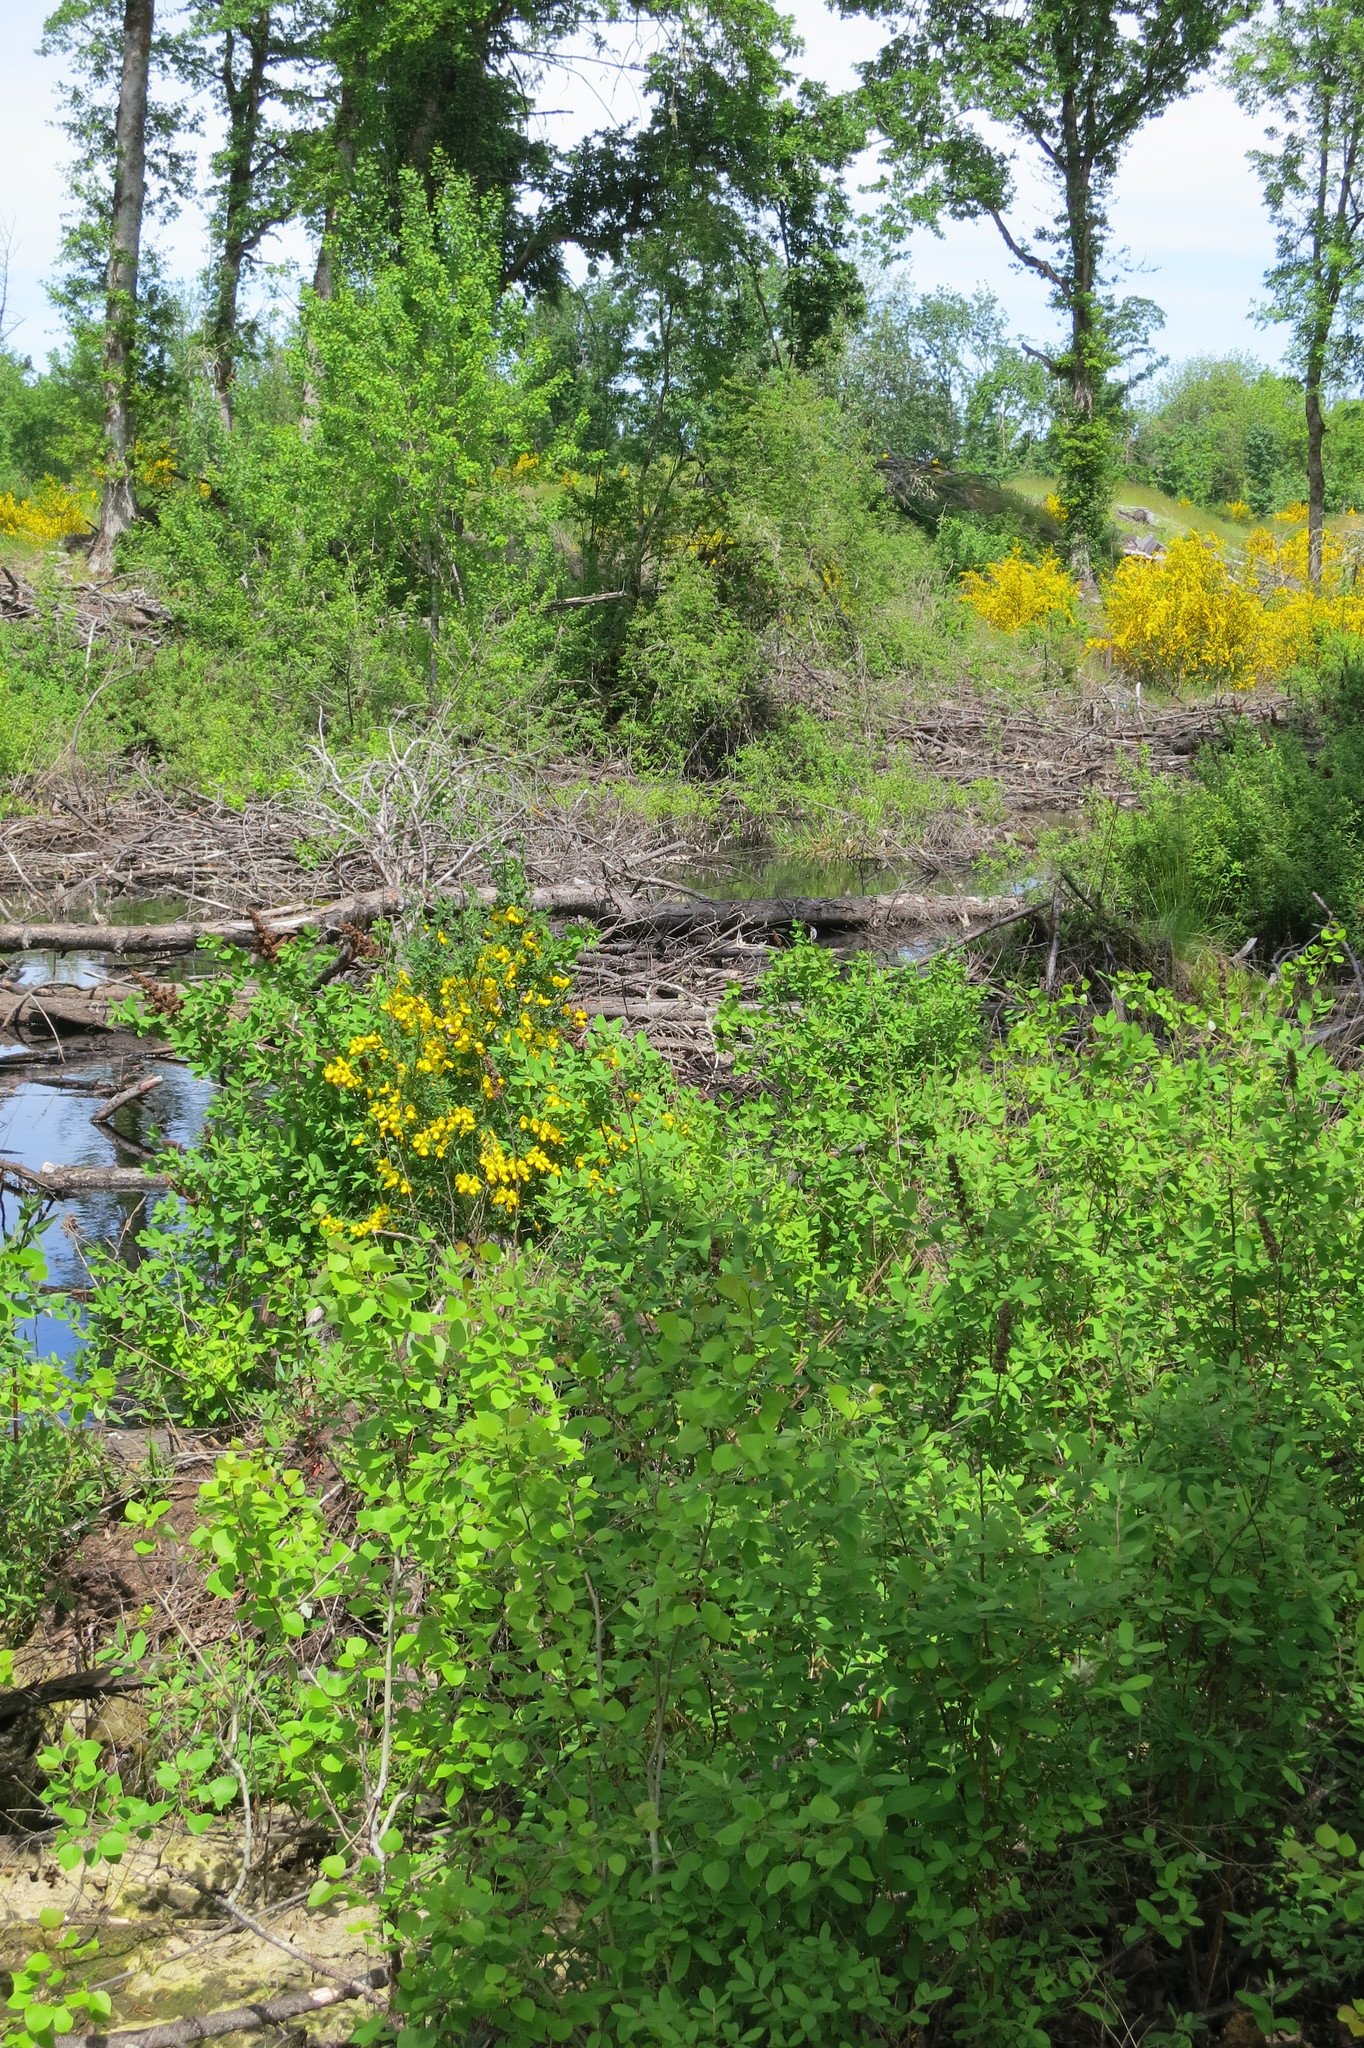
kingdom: Plantae
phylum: Tracheophyta
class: Magnoliopsida
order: Malpighiales
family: Salicaceae
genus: Populus
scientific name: Populus tremuloides
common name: Quaking aspen
